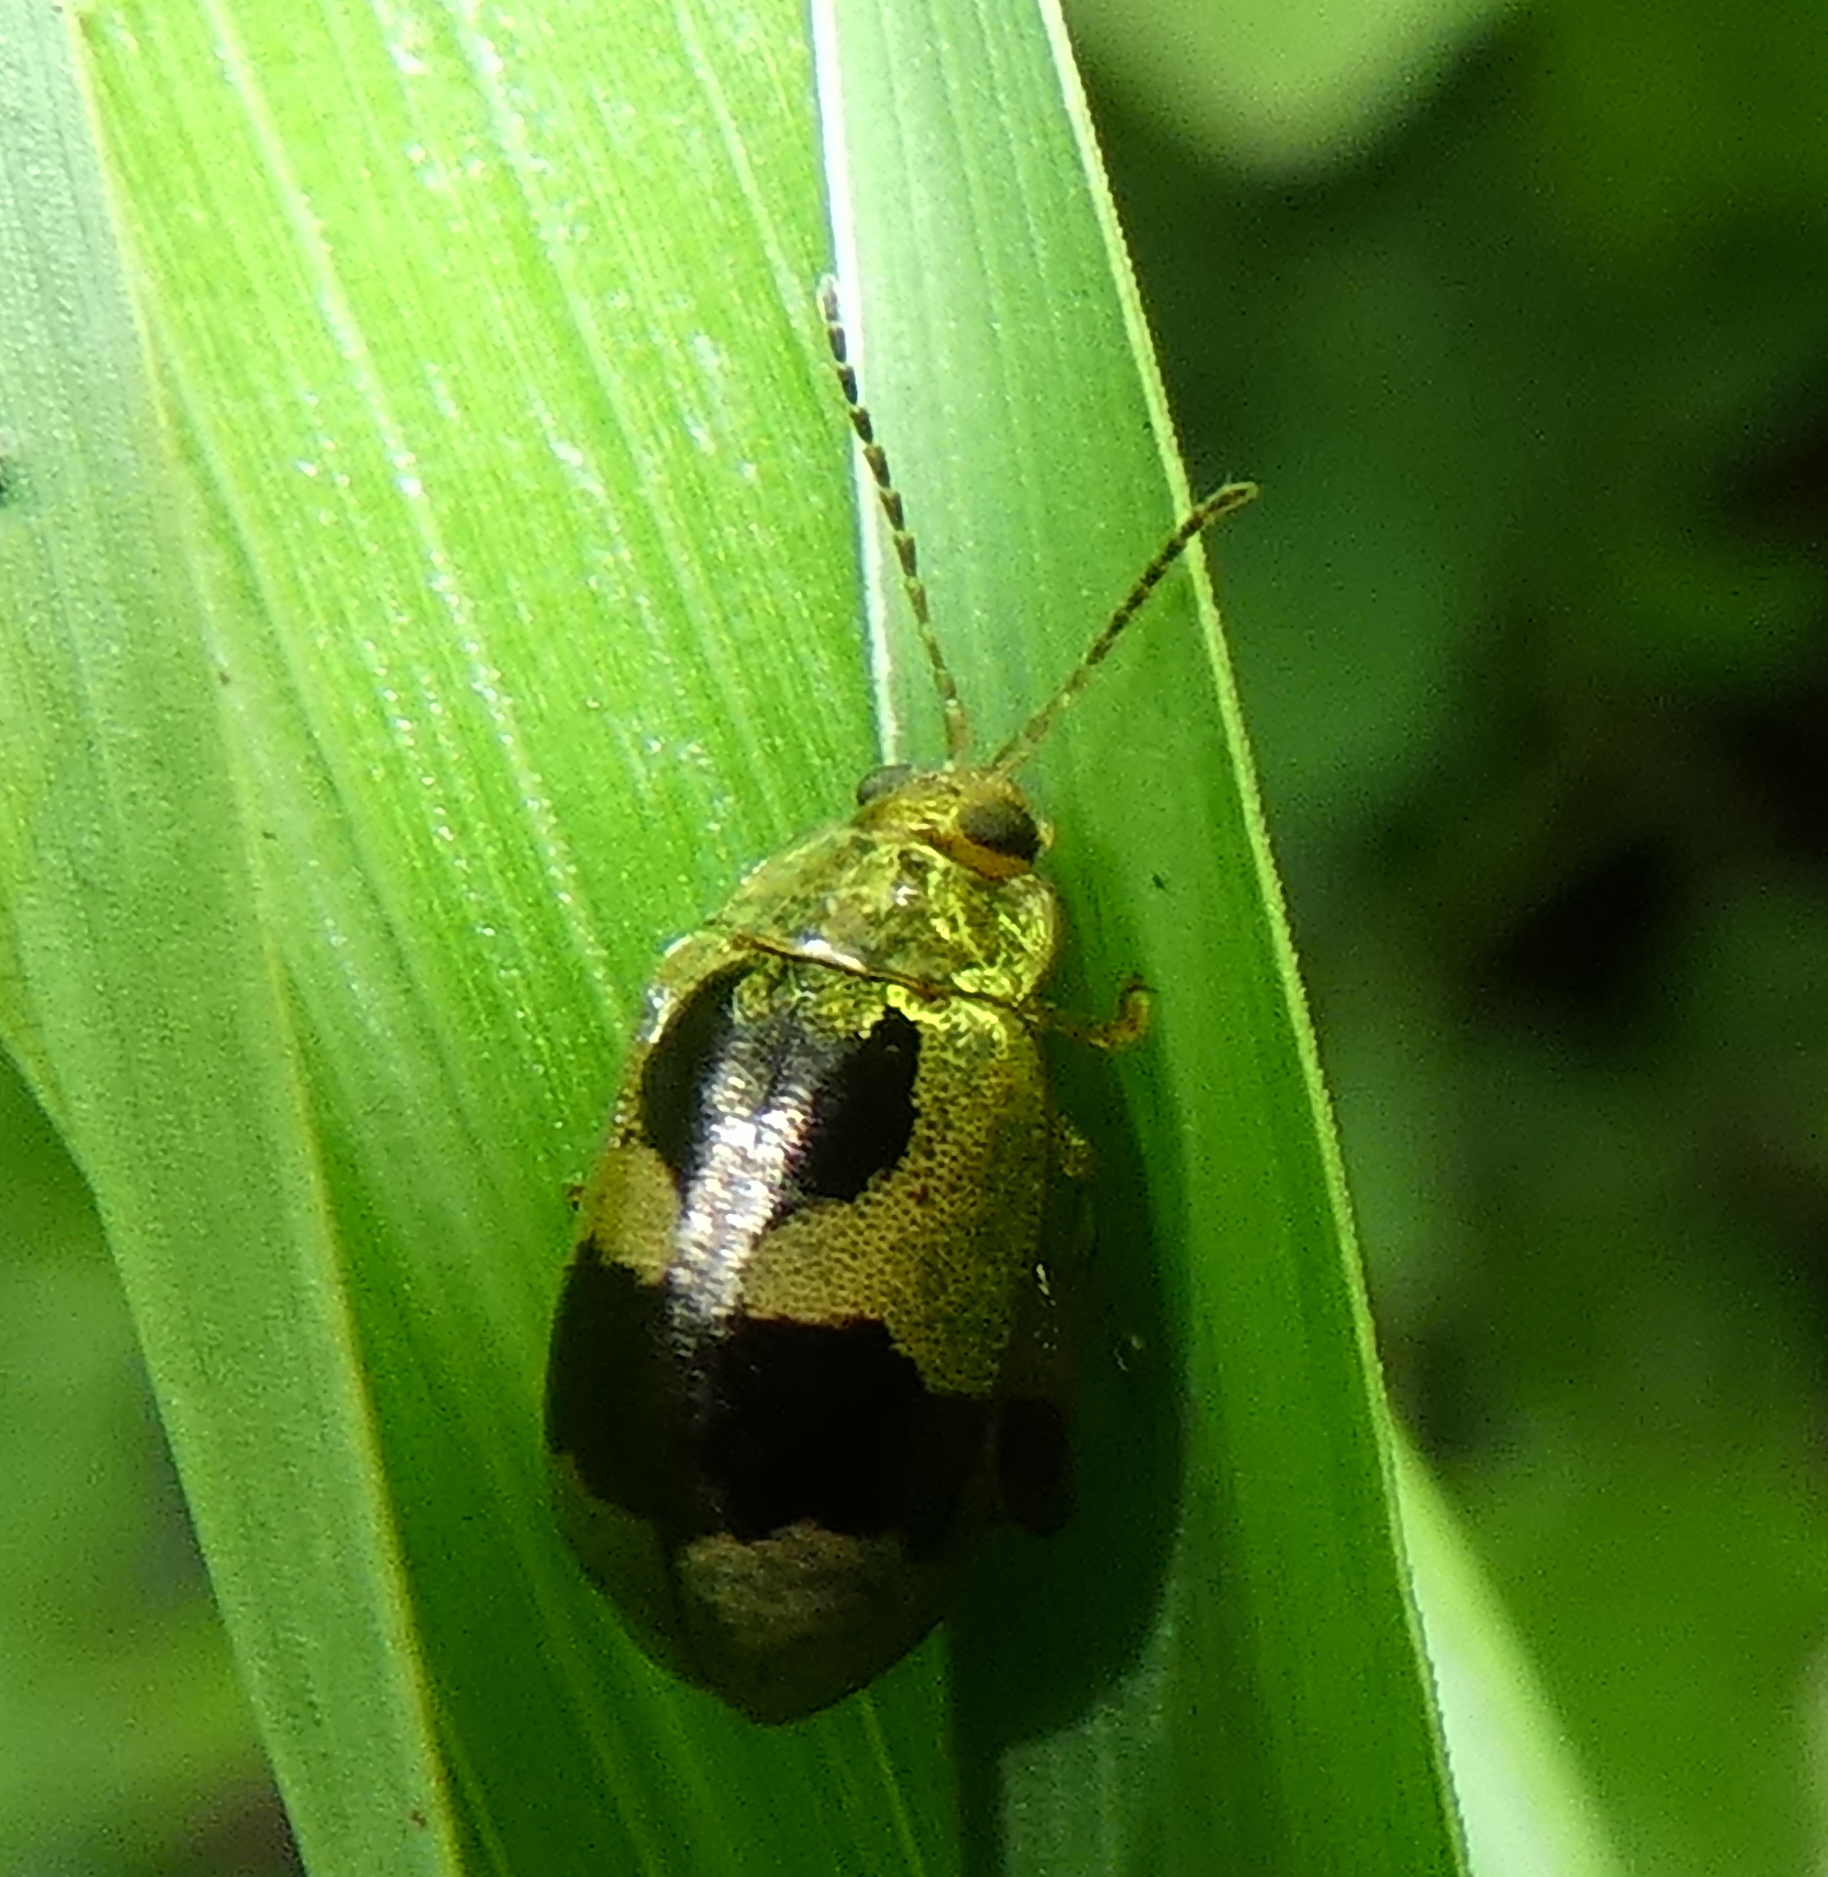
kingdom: Animalia
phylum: Arthropoda
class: Insecta
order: Coleoptera
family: Chrysomelidae
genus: Alagoasa
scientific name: Alagoasa
